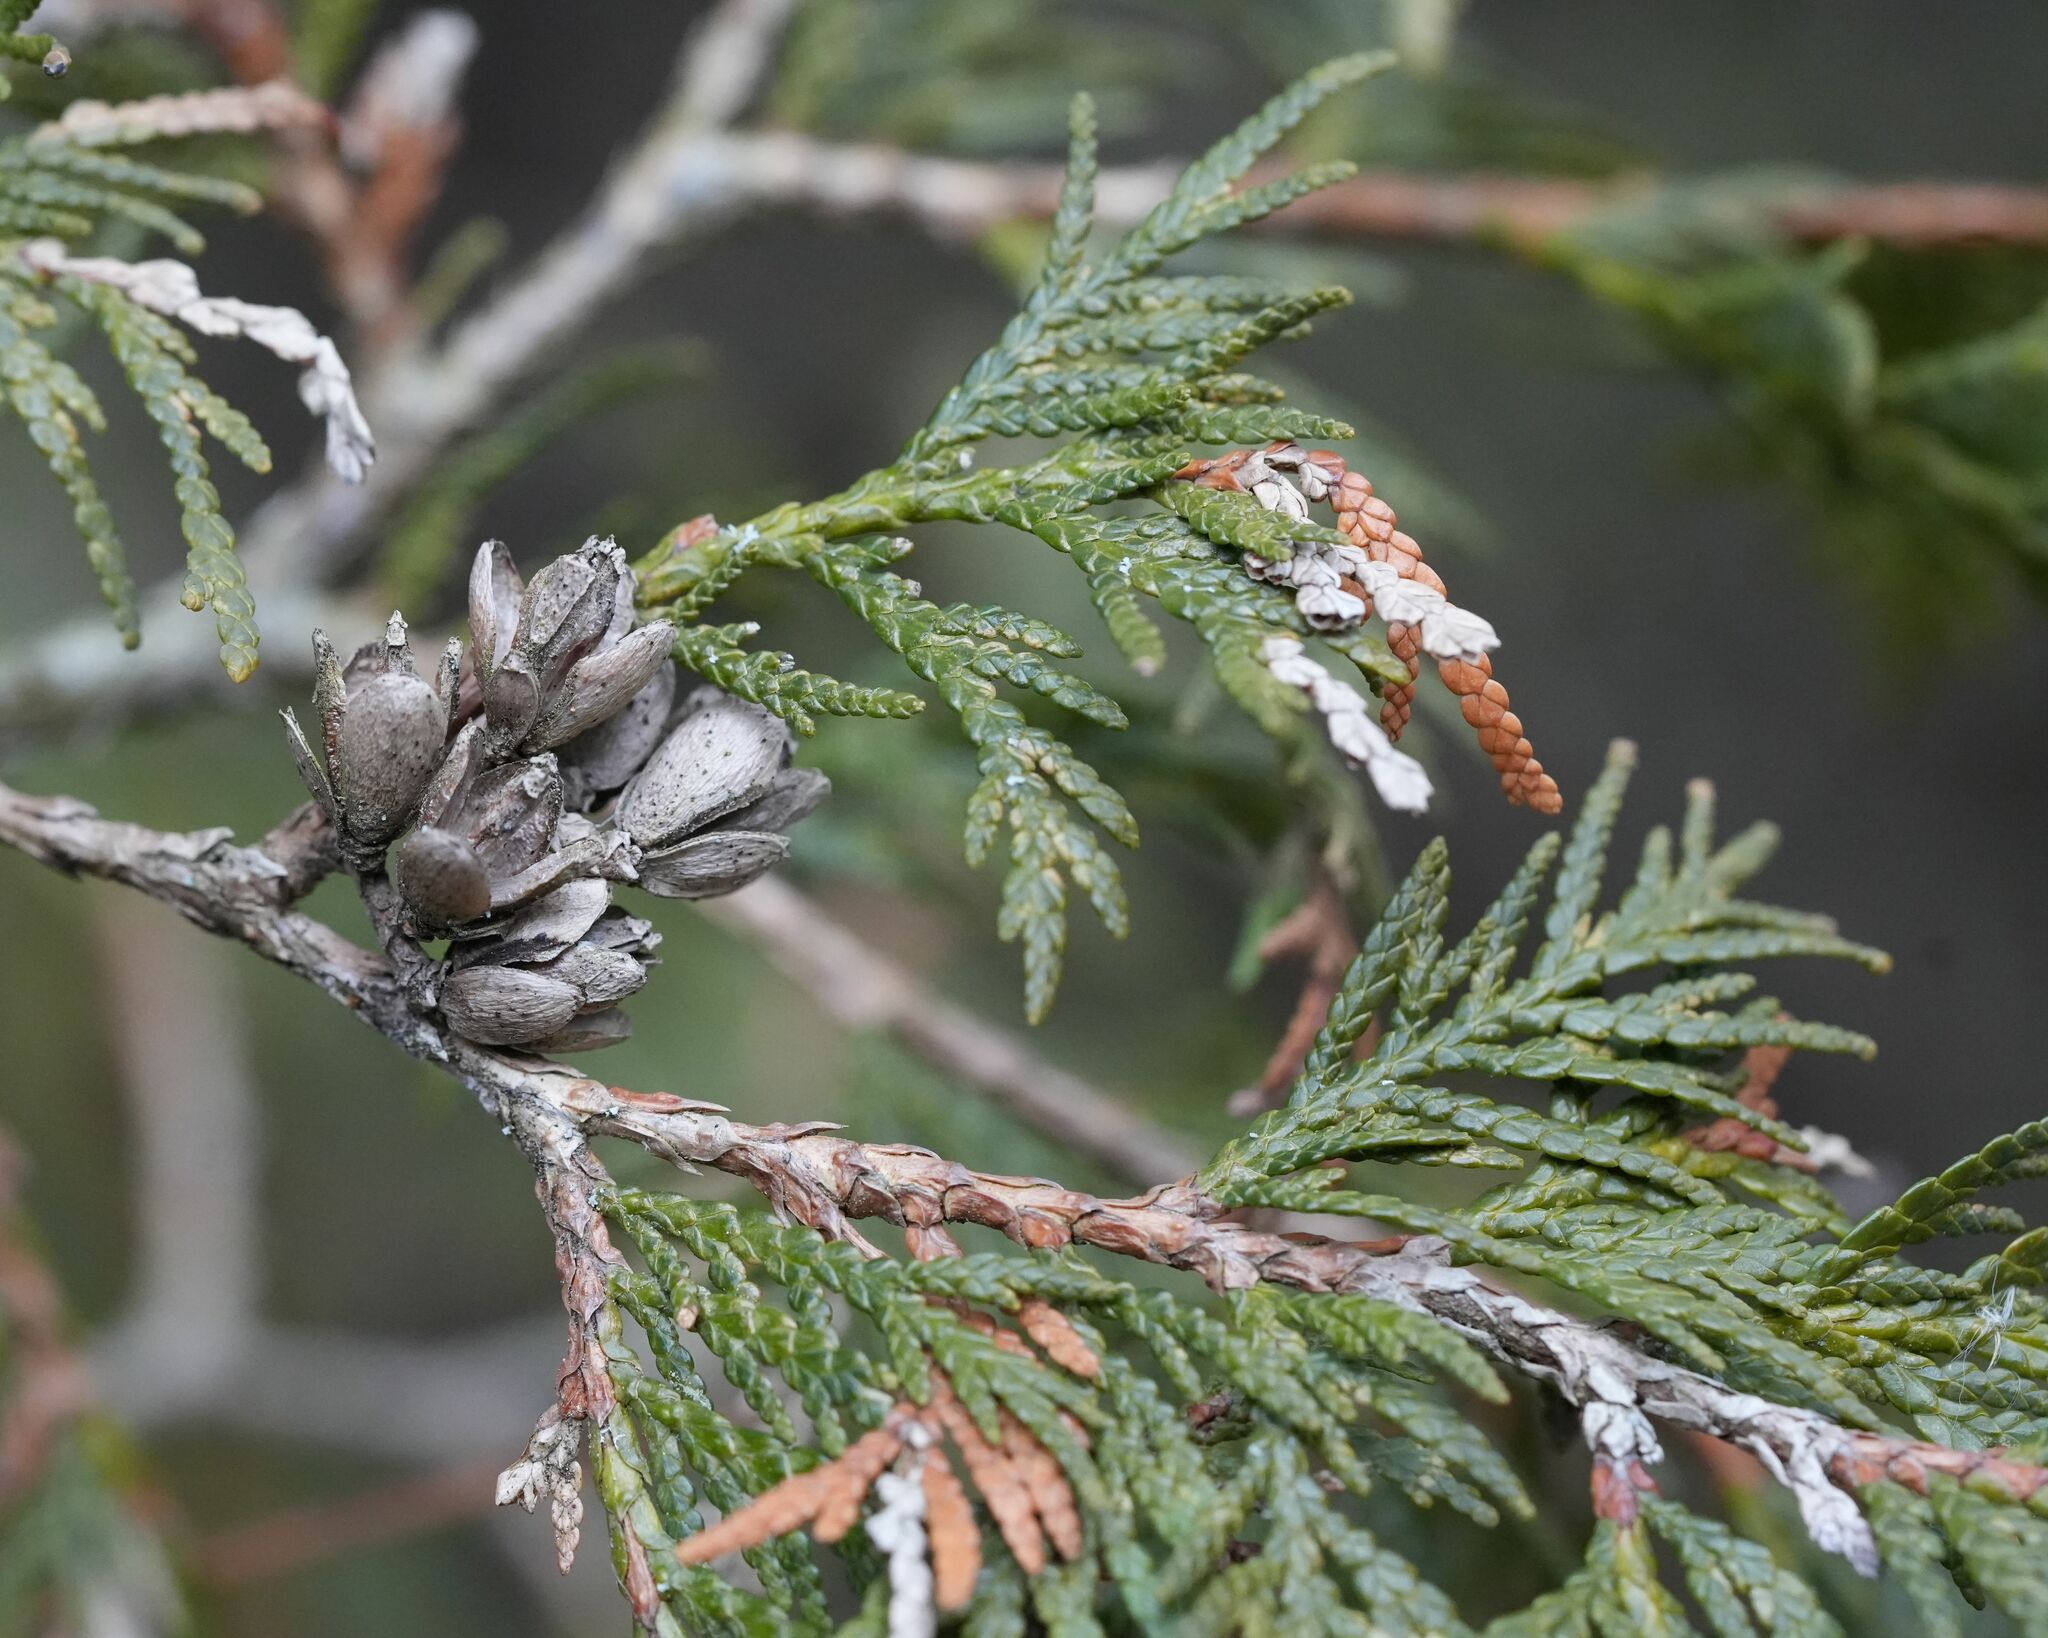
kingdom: Plantae
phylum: Tracheophyta
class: Pinopsida
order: Pinales
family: Cupressaceae
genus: Thuja
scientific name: Thuja occidentalis
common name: Northern white-cedar
